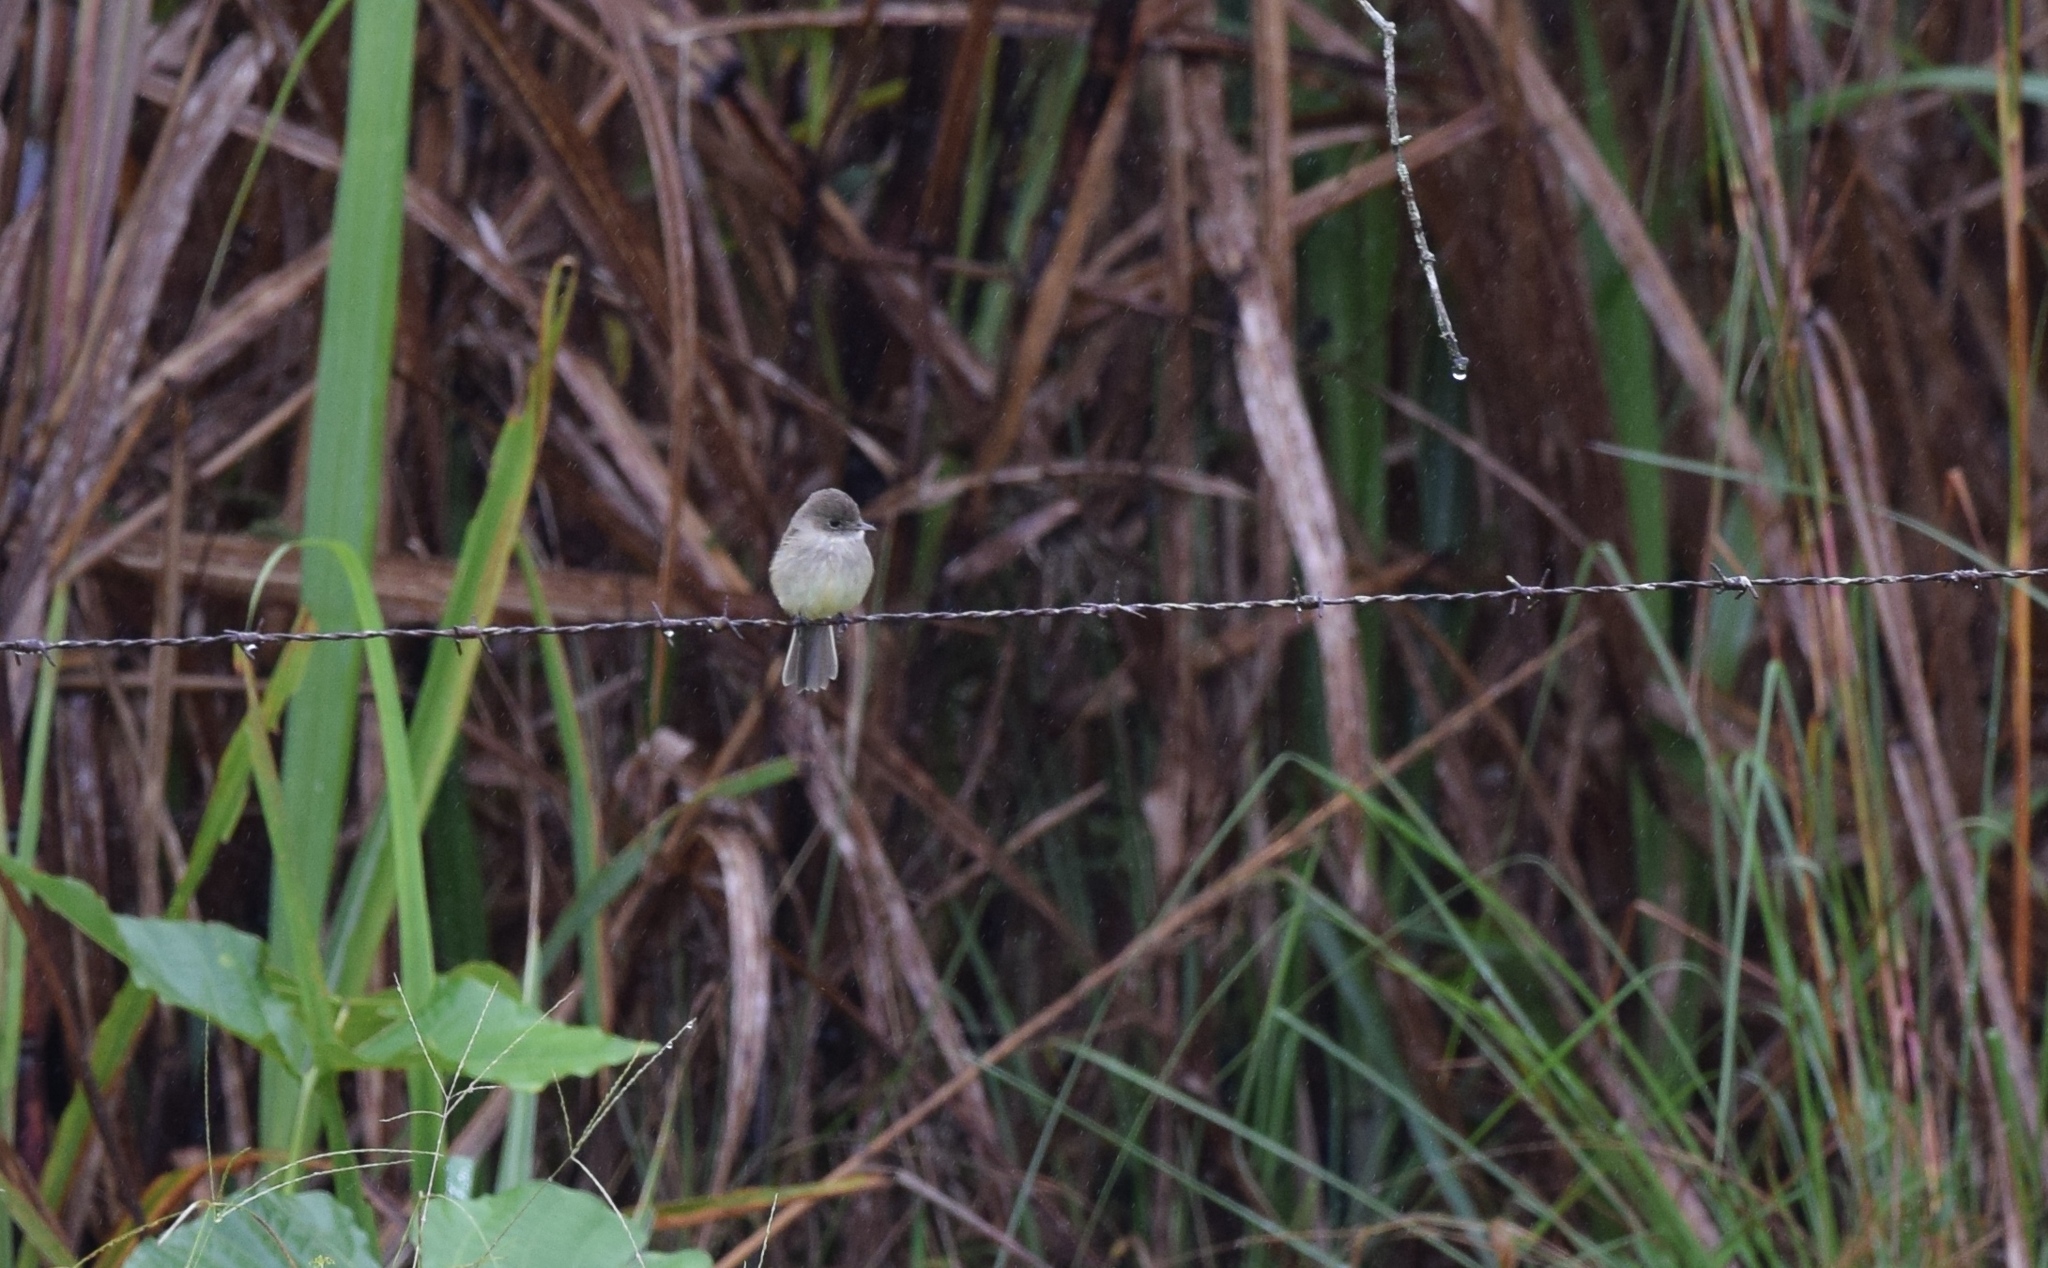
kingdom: Animalia
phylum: Chordata
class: Aves
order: Passeriformes
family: Tyrannidae
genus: Empidonax
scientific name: Empidonax albigularis
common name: White-throated flycatcher
